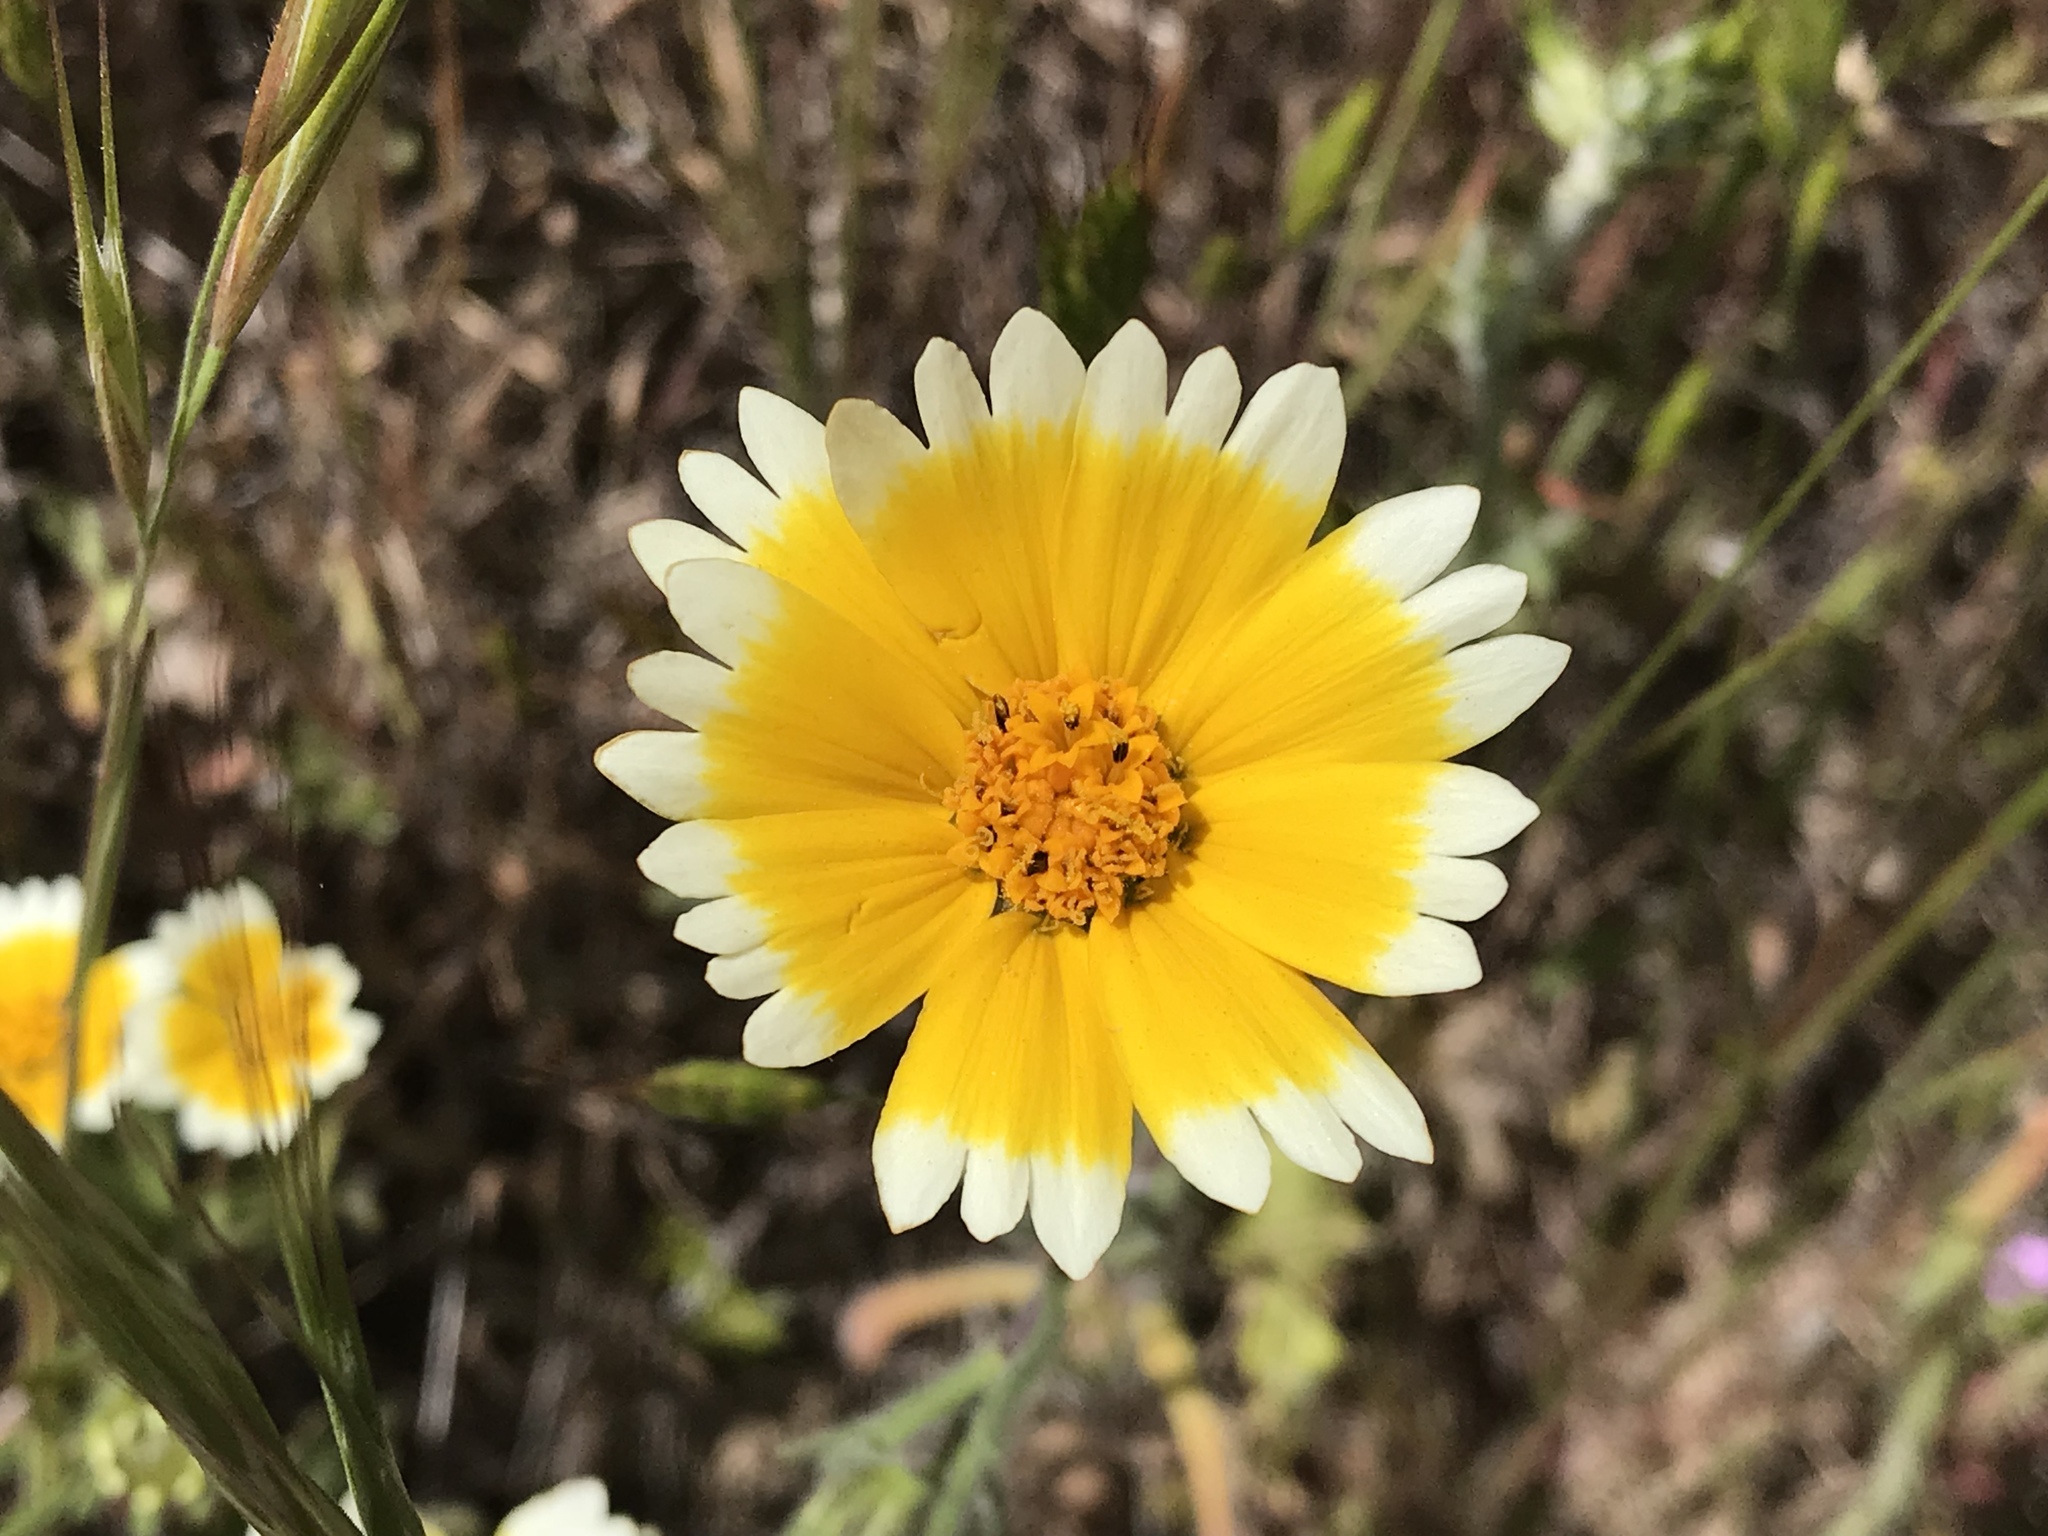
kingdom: Plantae
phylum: Tracheophyta
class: Magnoliopsida
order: Asterales
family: Asteraceae
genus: Layia
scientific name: Layia platyglossa
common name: Tidy-tips
